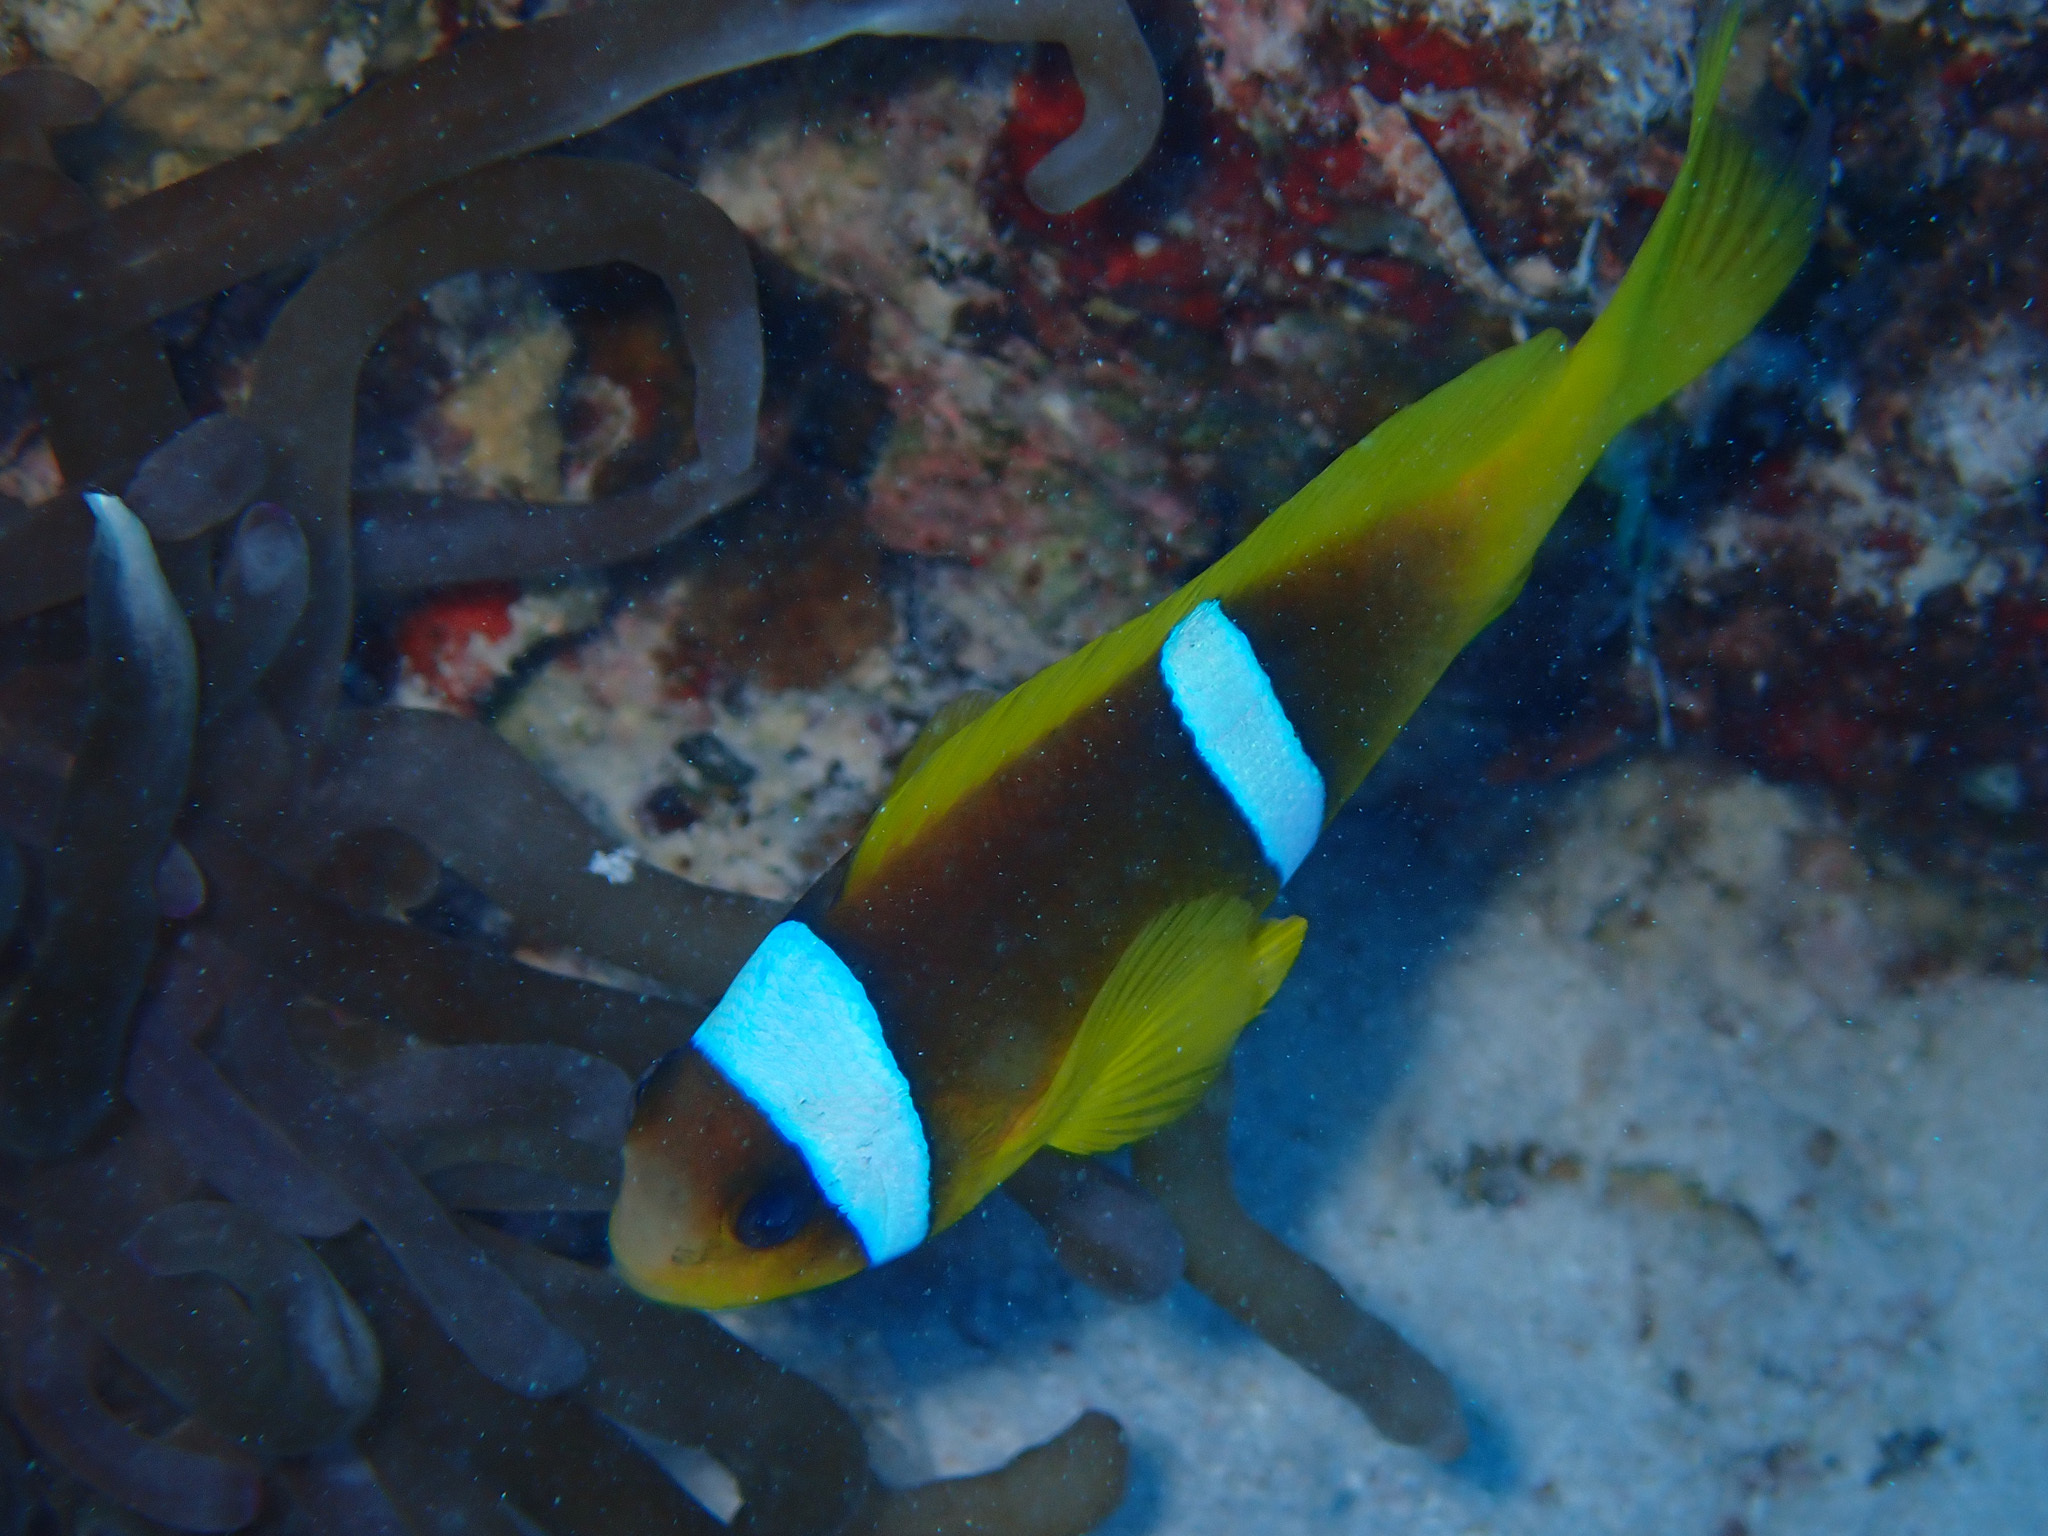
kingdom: Animalia
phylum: Chordata
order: Perciformes
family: Pomacentridae
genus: Amphiprion
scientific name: Amphiprion bicinctus
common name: Two-banded anemonefish
